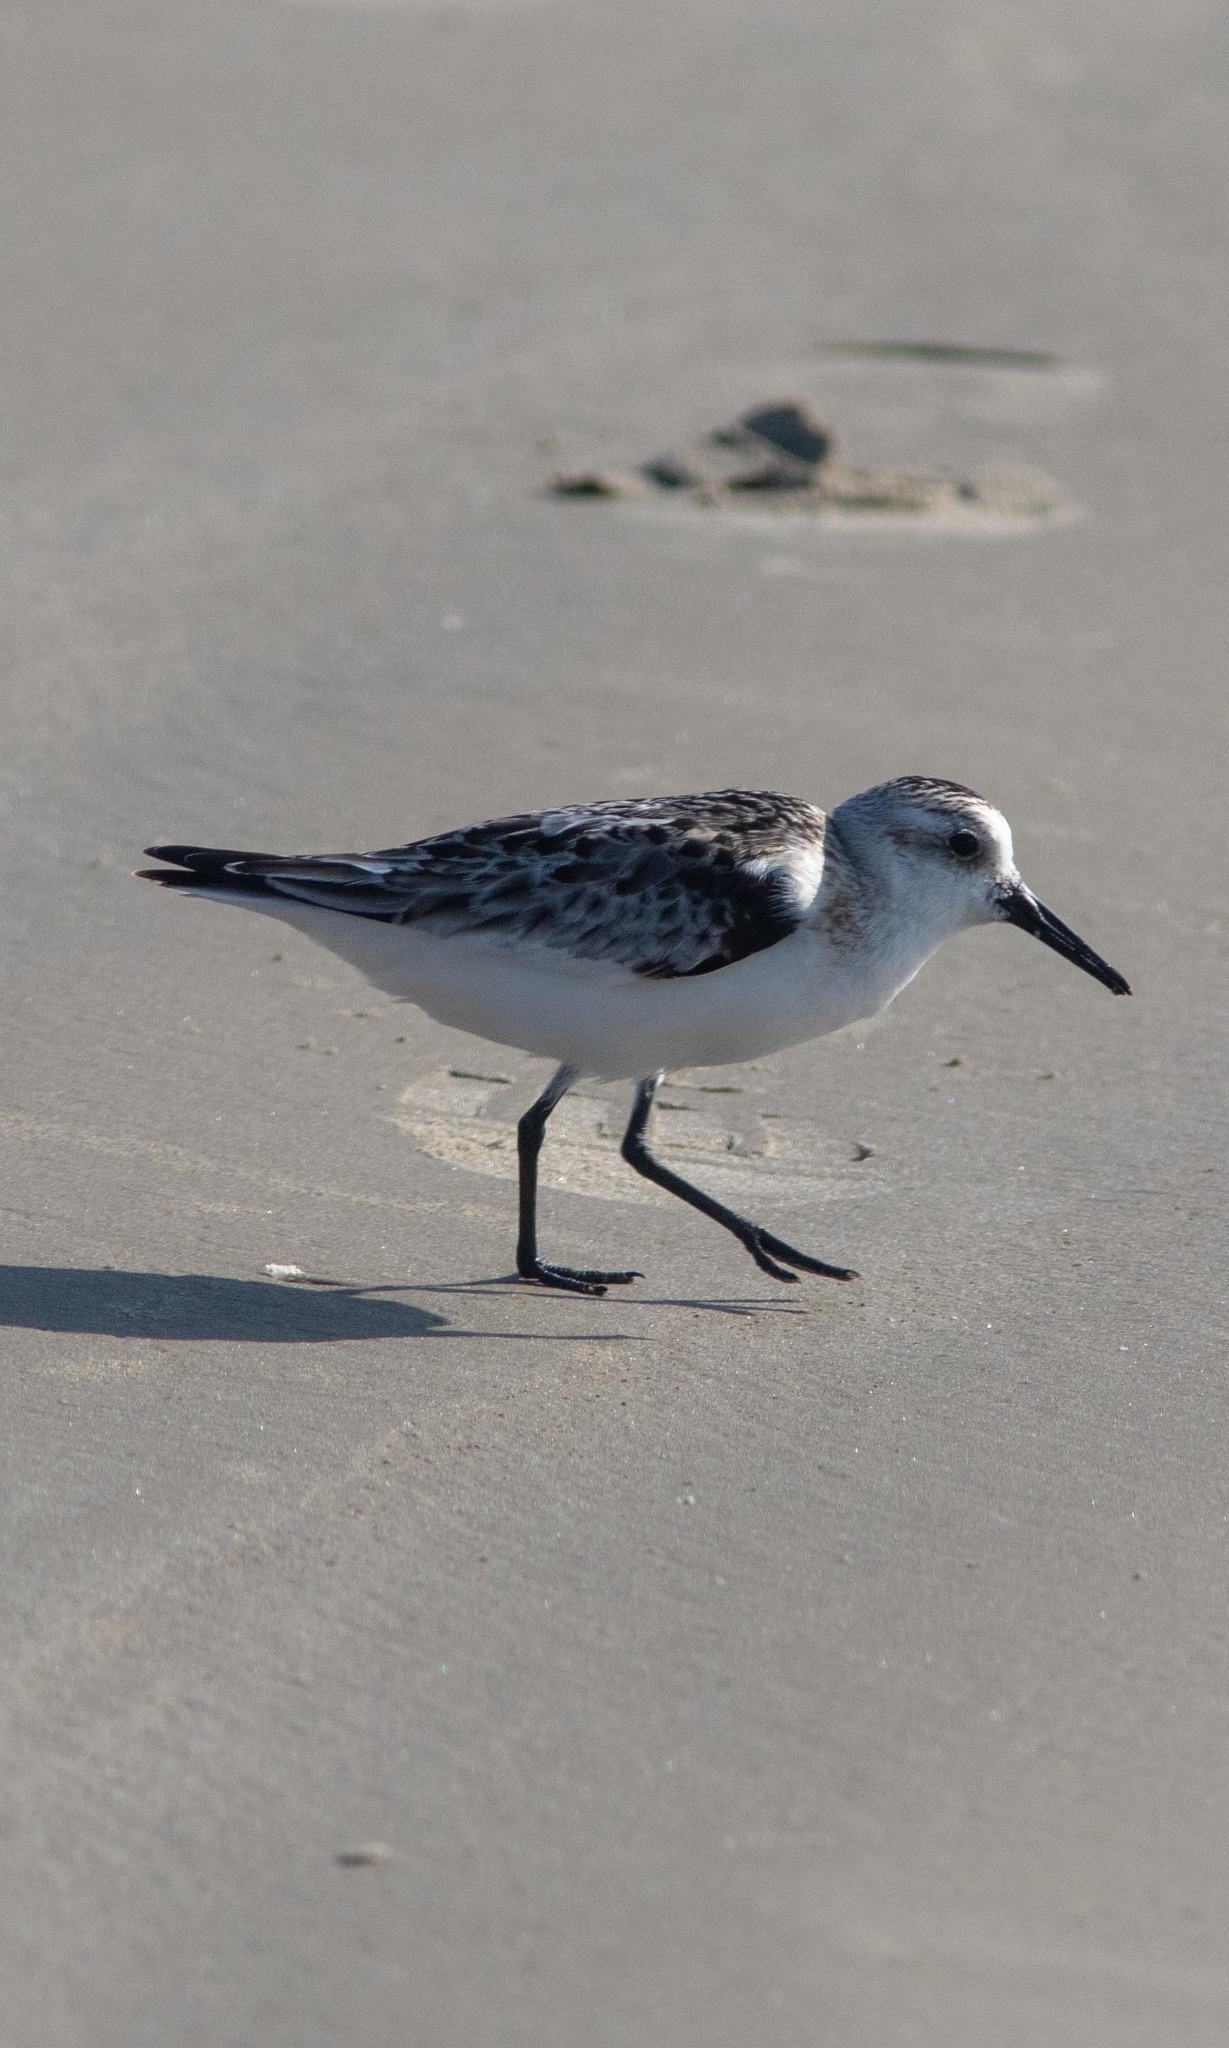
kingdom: Animalia
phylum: Chordata
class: Aves
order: Charadriiformes
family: Scolopacidae
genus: Calidris
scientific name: Calidris alba
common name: Sanderling
